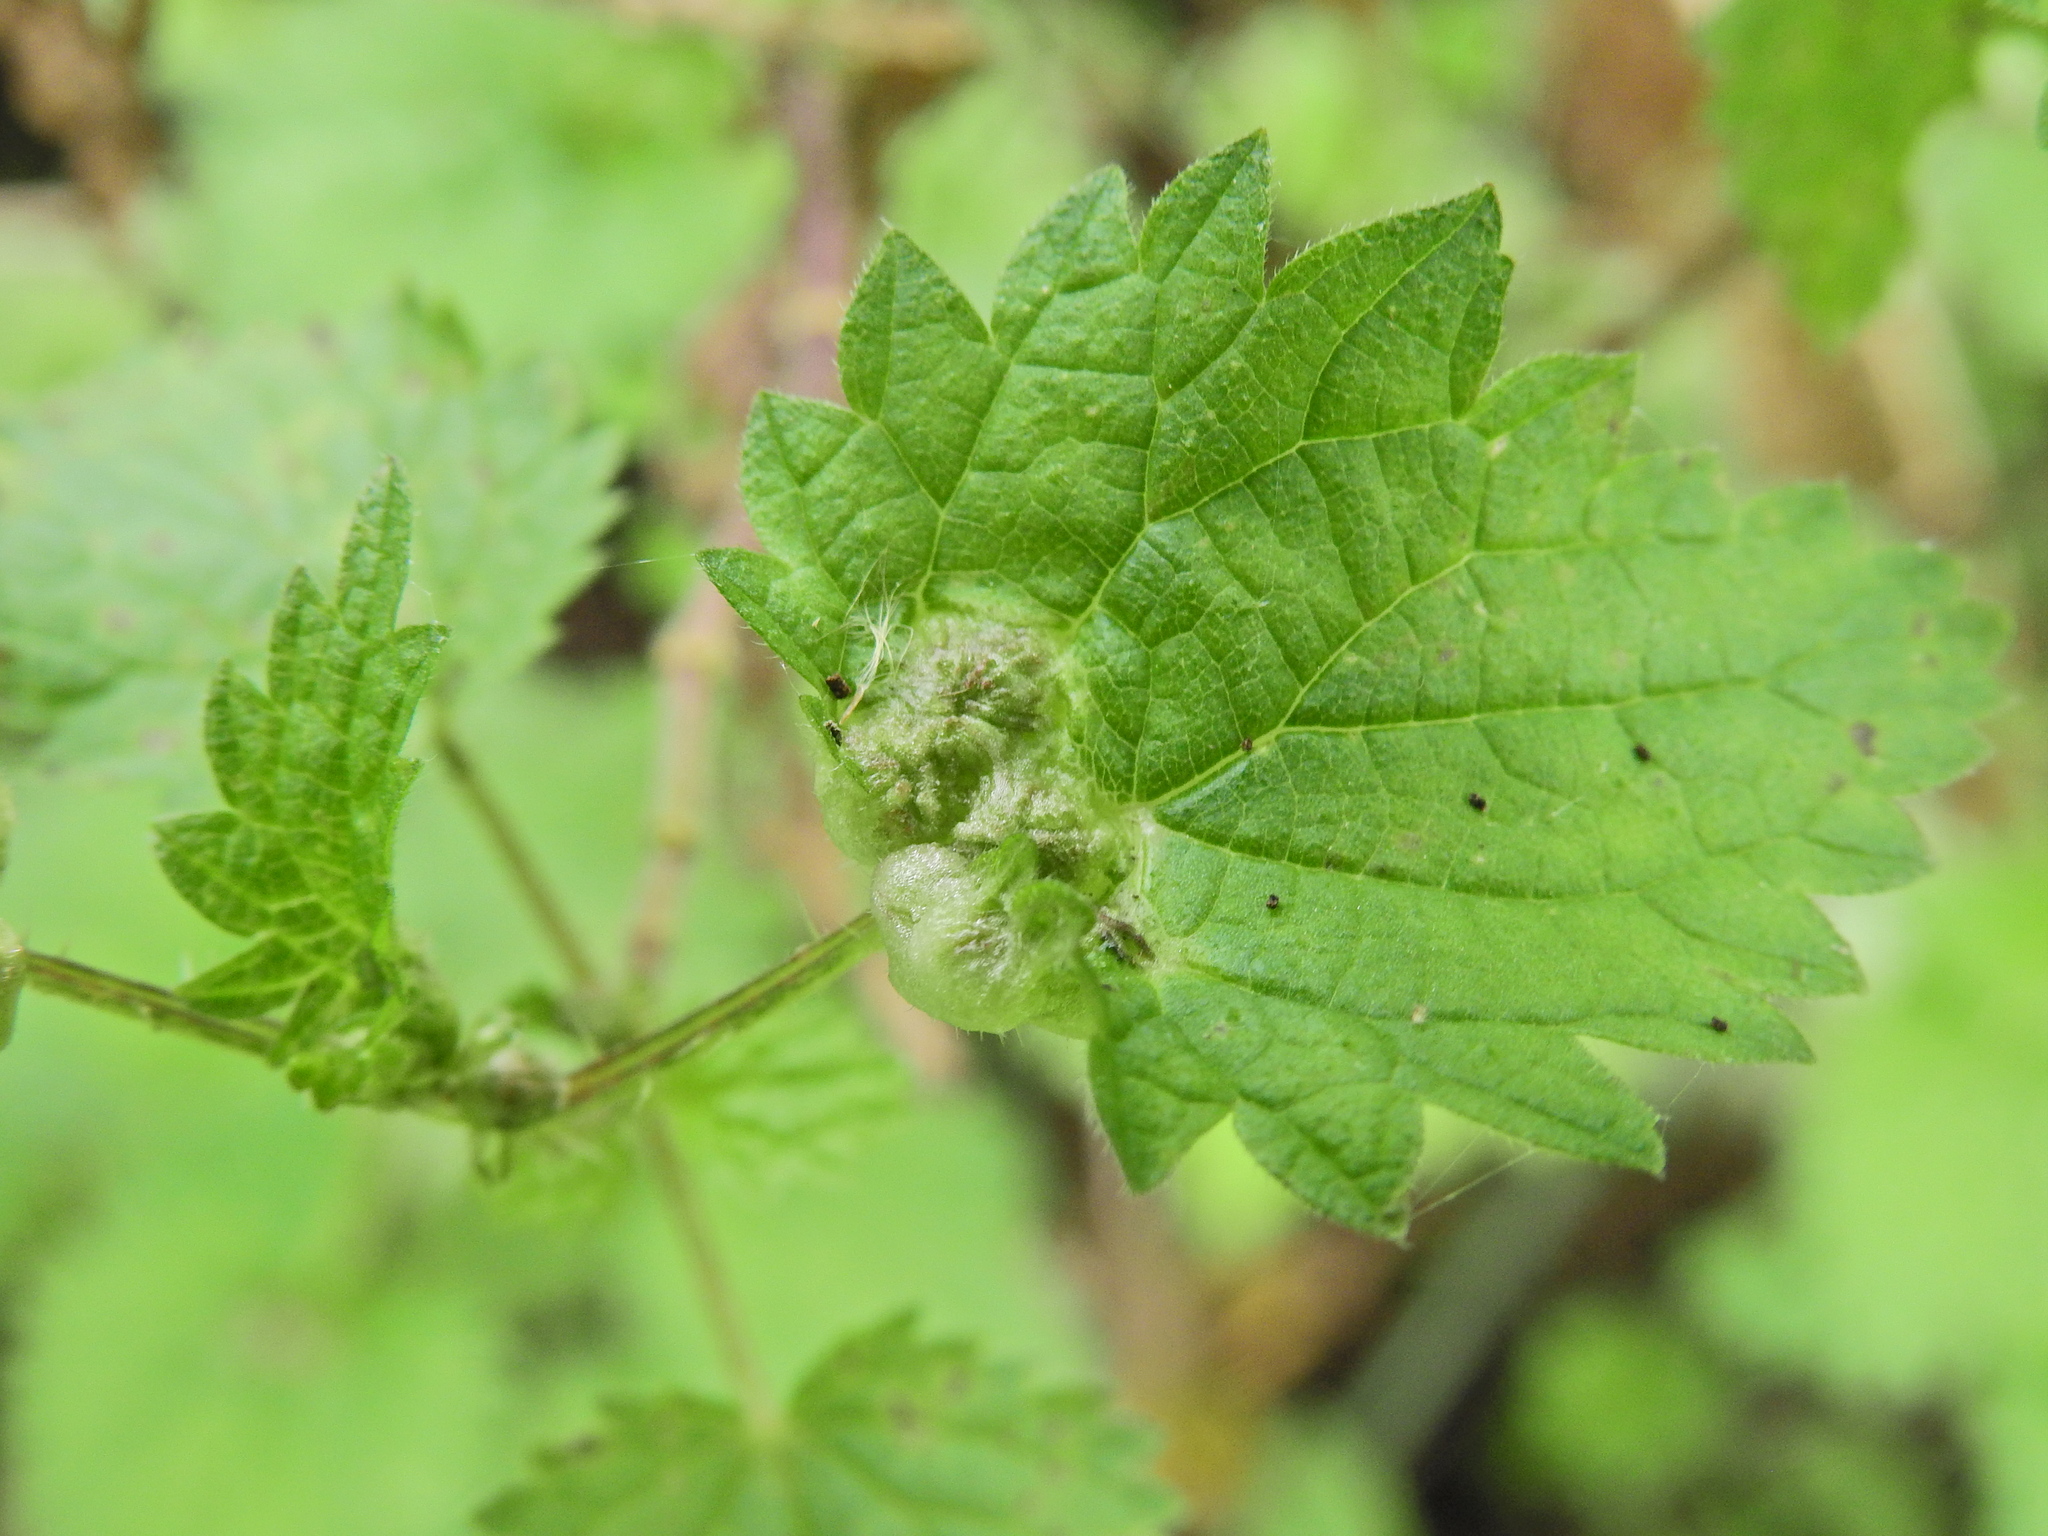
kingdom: Animalia
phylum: Arthropoda
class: Insecta
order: Diptera
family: Cecidomyiidae
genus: Dasineura
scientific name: Dasineura urticae
